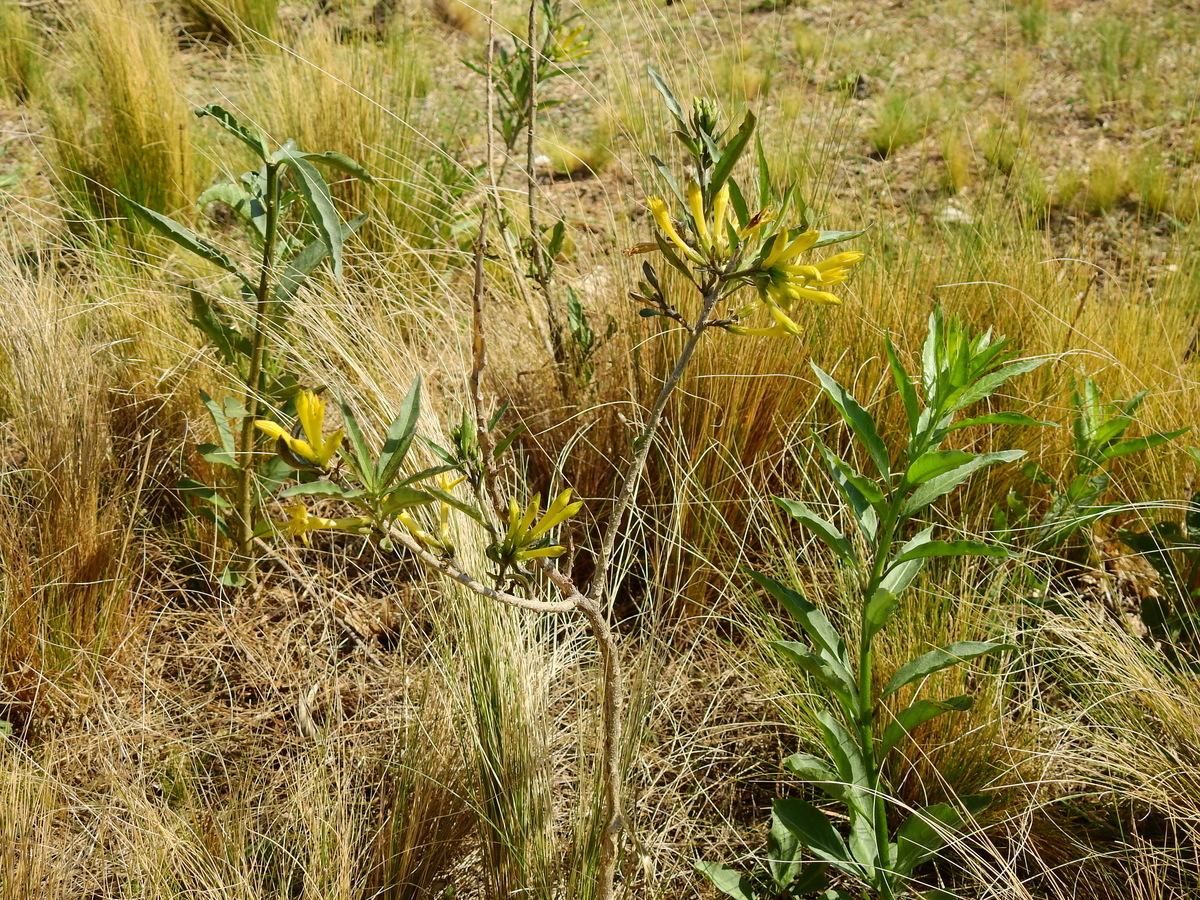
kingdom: Plantae
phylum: Tracheophyta
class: Magnoliopsida
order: Solanales
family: Solanaceae
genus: Cestrum
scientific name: Cestrum parqui
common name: Chilean cestrum
